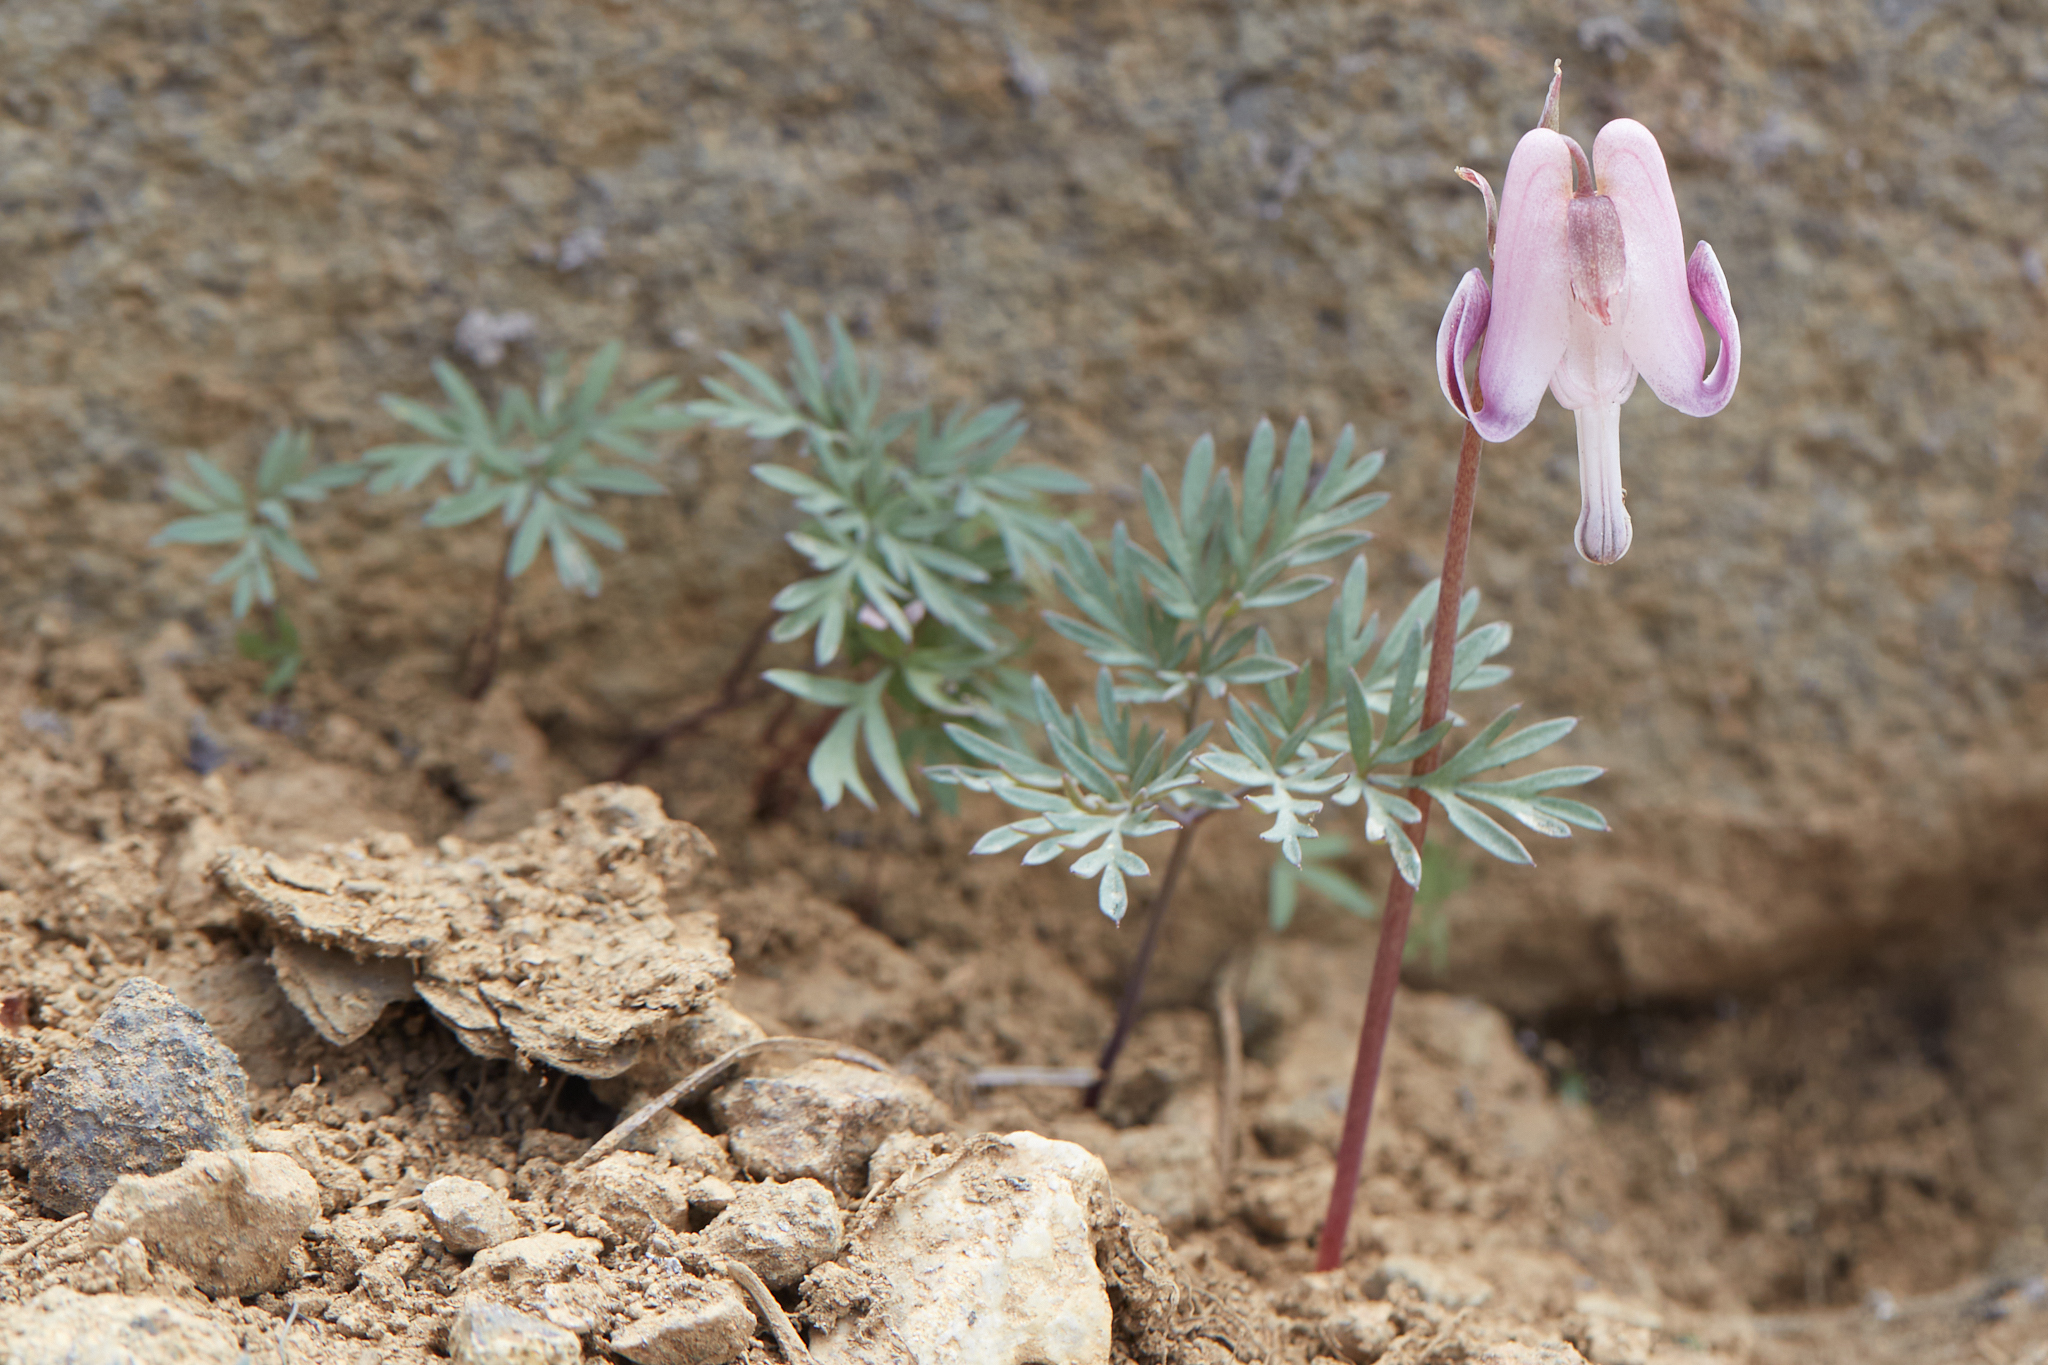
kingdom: Plantae
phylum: Tracheophyta
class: Magnoliopsida
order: Ranunculales
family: Papaveraceae
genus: Dicentra
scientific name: Dicentra pauciflora
